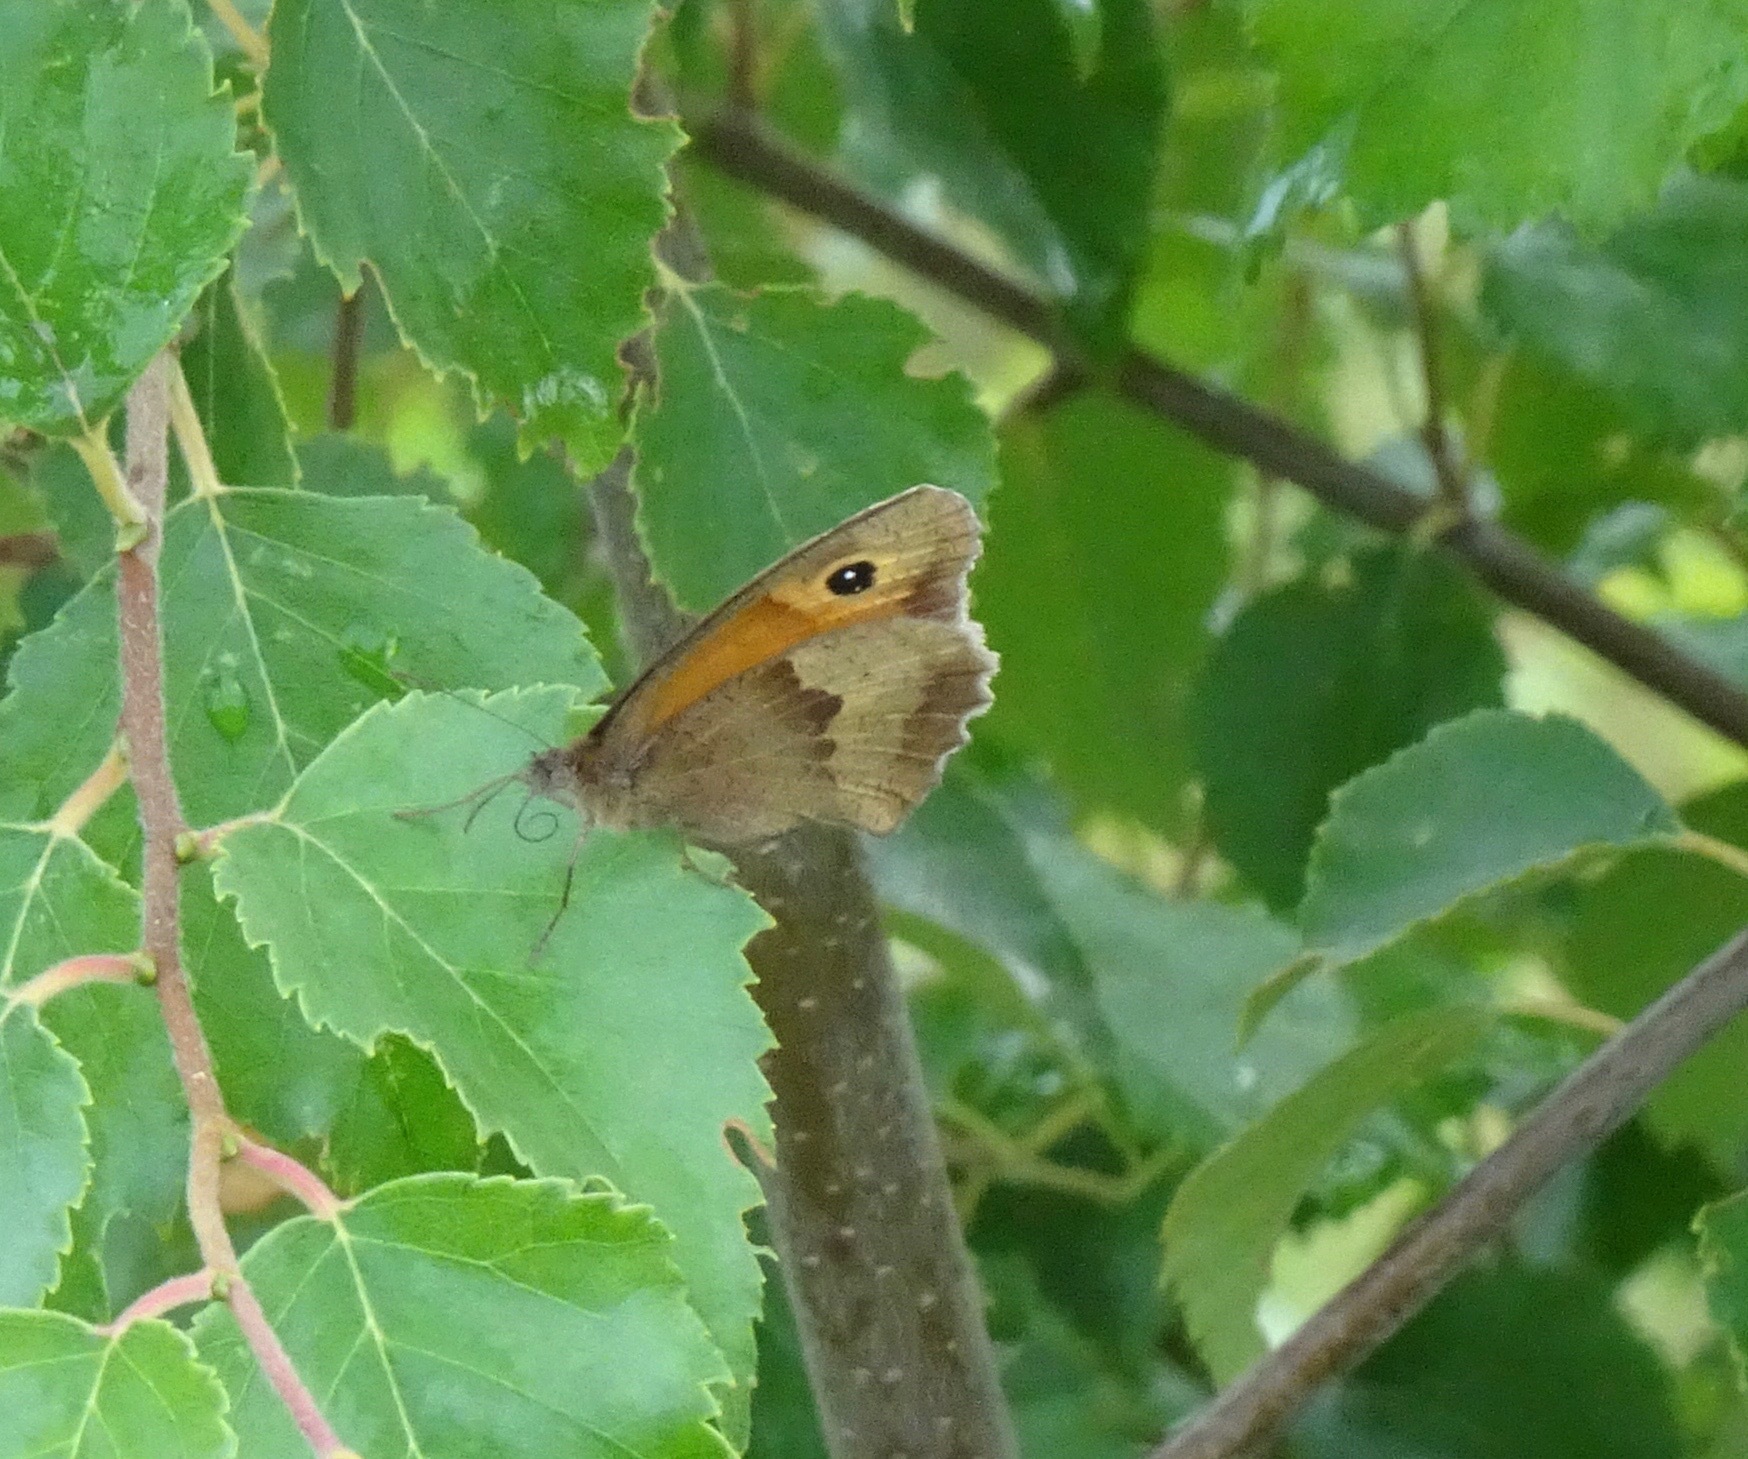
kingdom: Animalia
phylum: Arthropoda
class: Insecta
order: Lepidoptera
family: Nymphalidae
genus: Maniola
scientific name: Maniola jurtina
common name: Meadow brown
